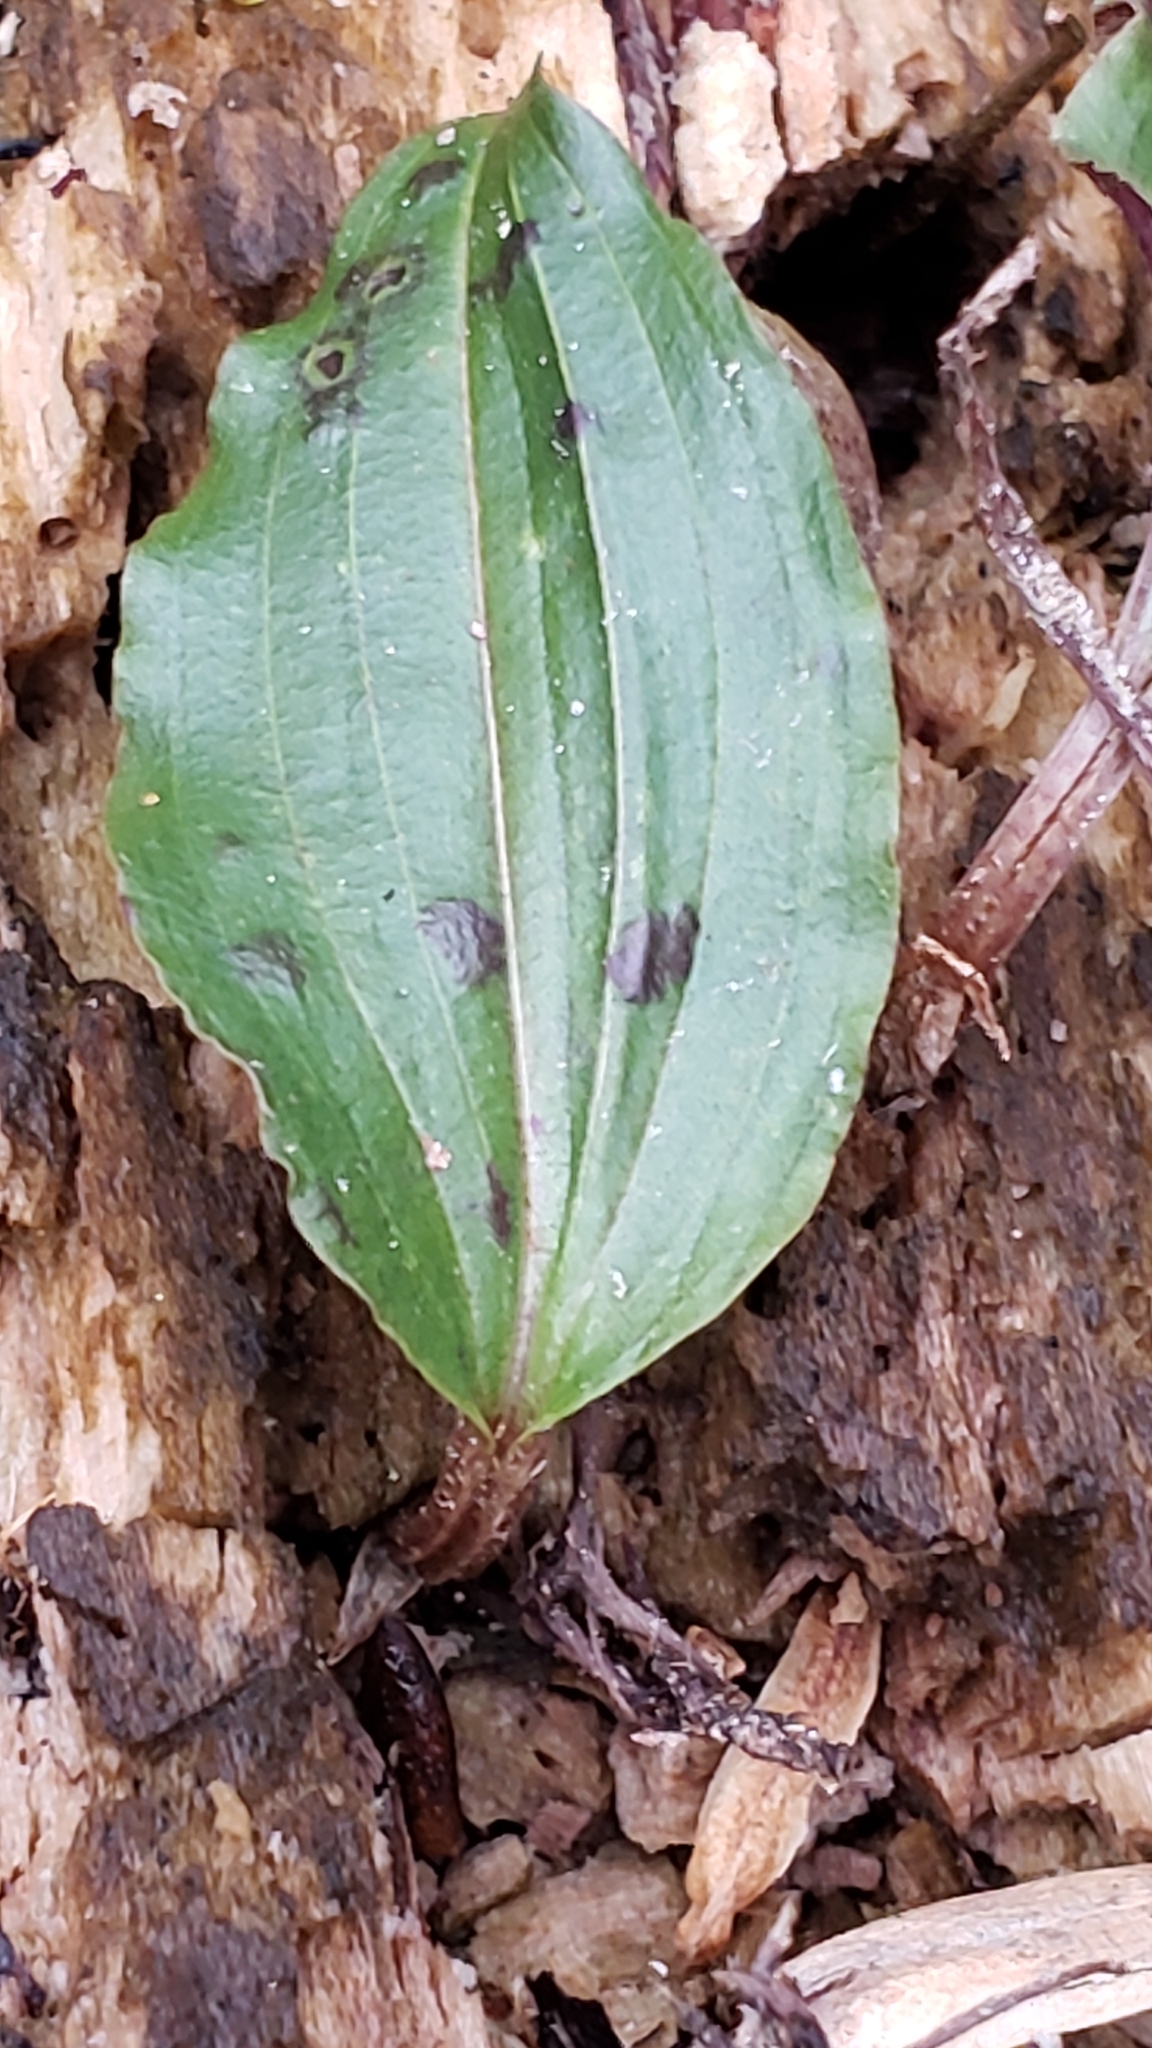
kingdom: Plantae
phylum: Tracheophyta
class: Liliopsida
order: Asparagales
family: Orchidaceae
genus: Tipularia
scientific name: Tipularia discolor
